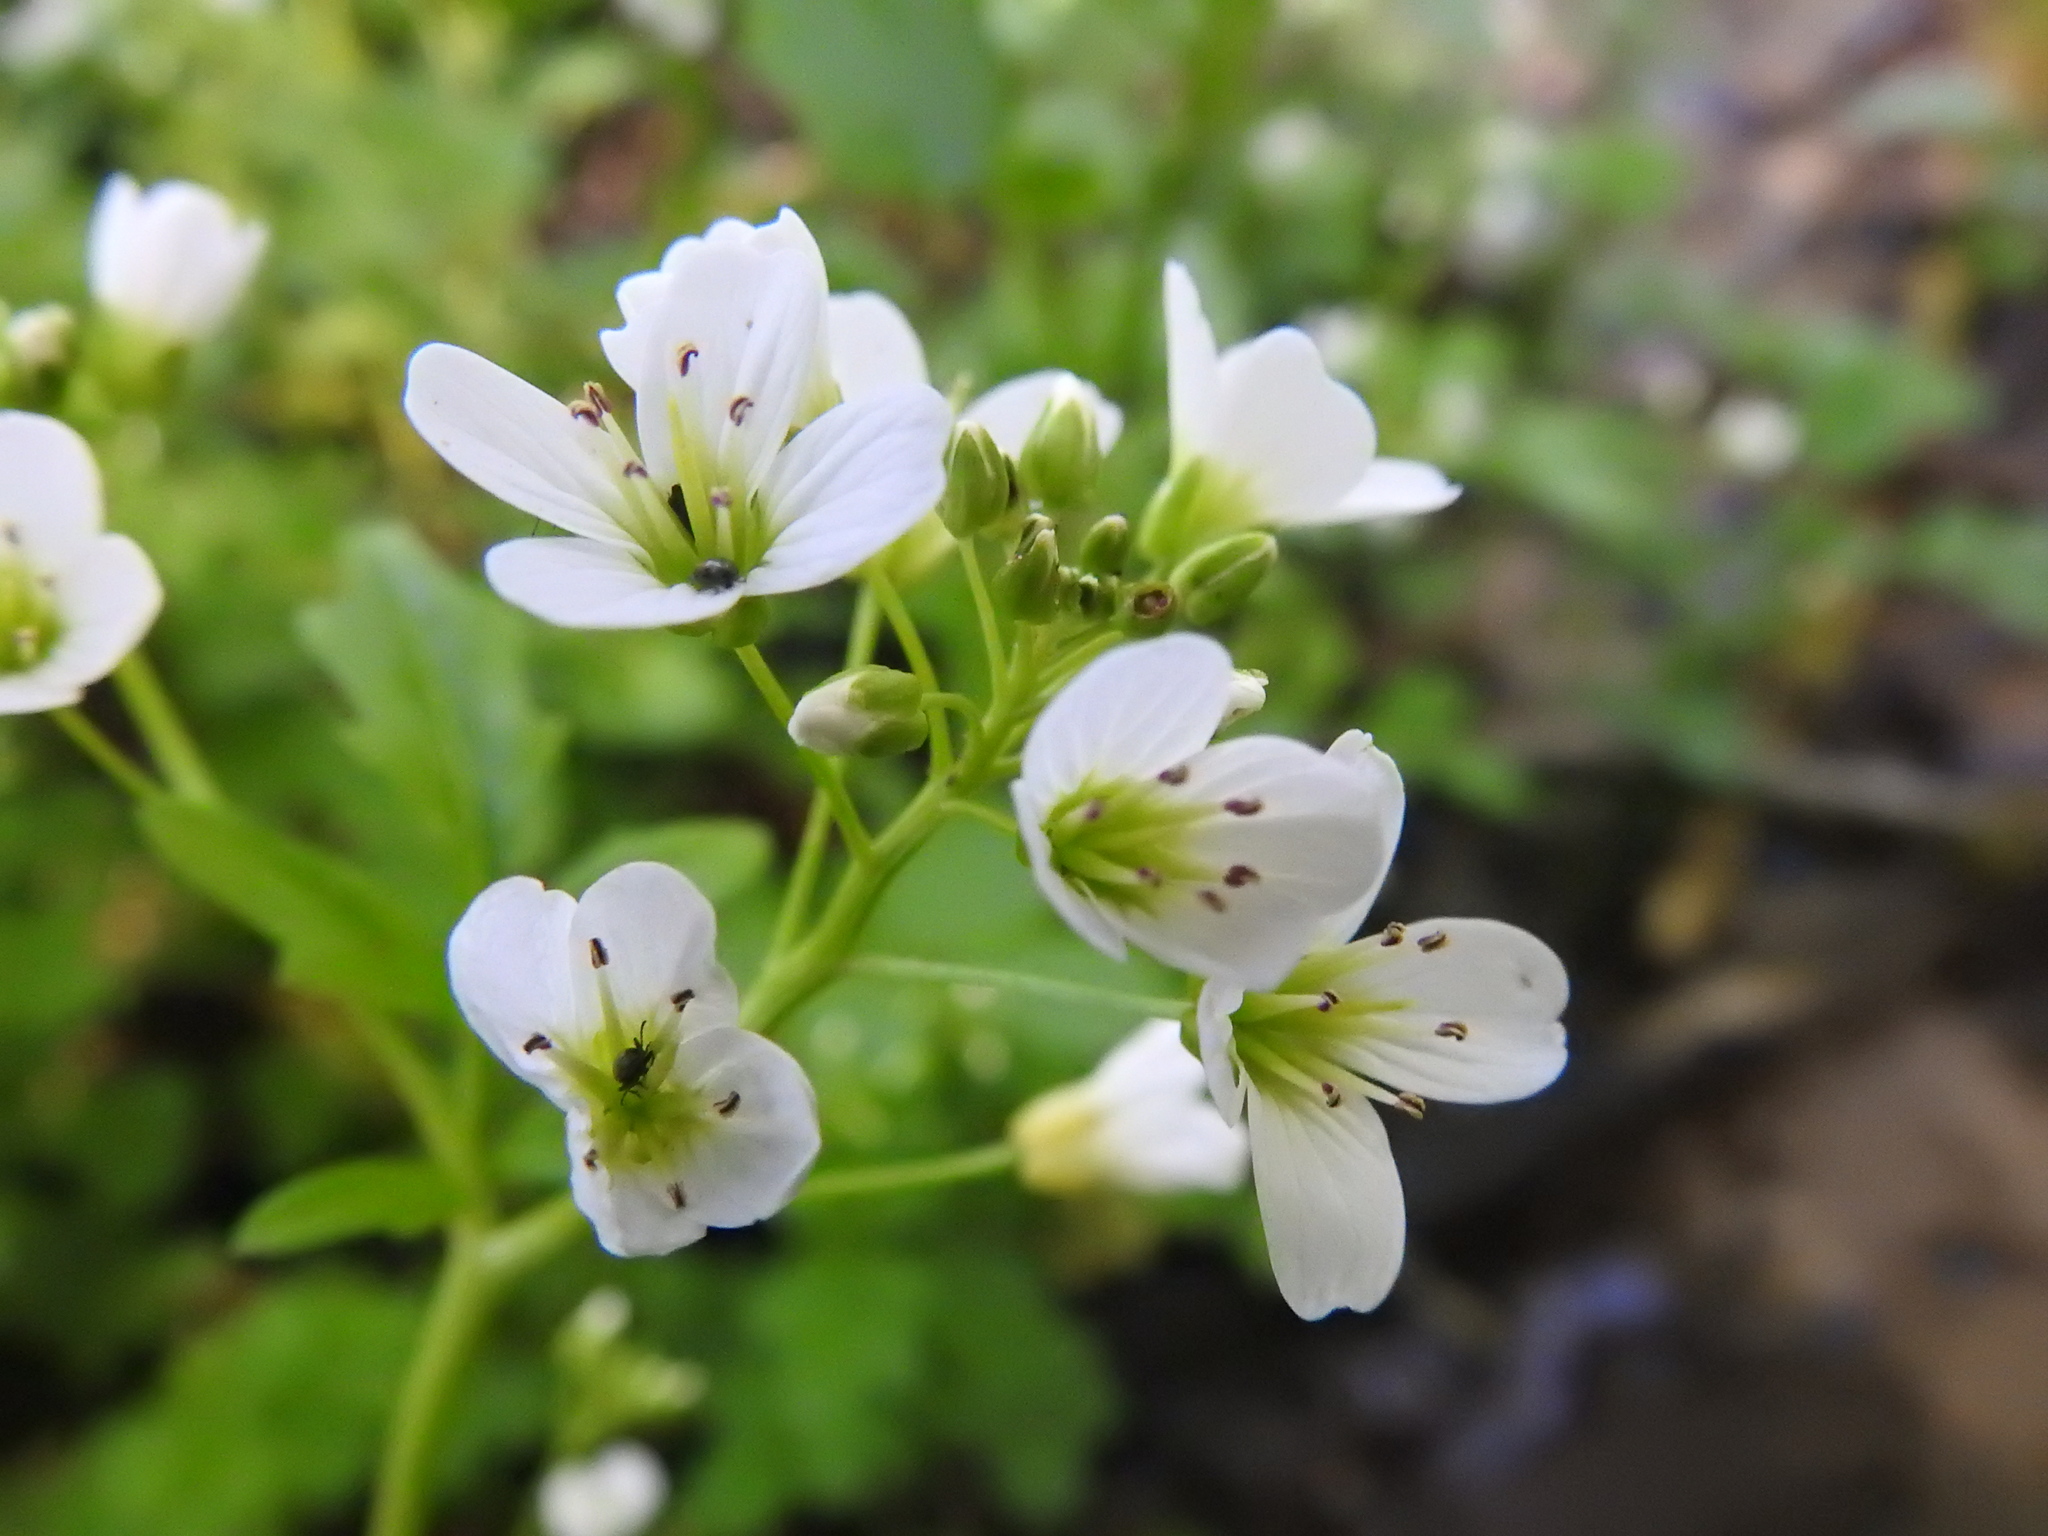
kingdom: Plantae
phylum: Tracheophyta
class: Magnoliopsida
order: Brassicales
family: Brassicaceae
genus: Cardamine
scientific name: Cardamine amara
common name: Large bitter-cress
